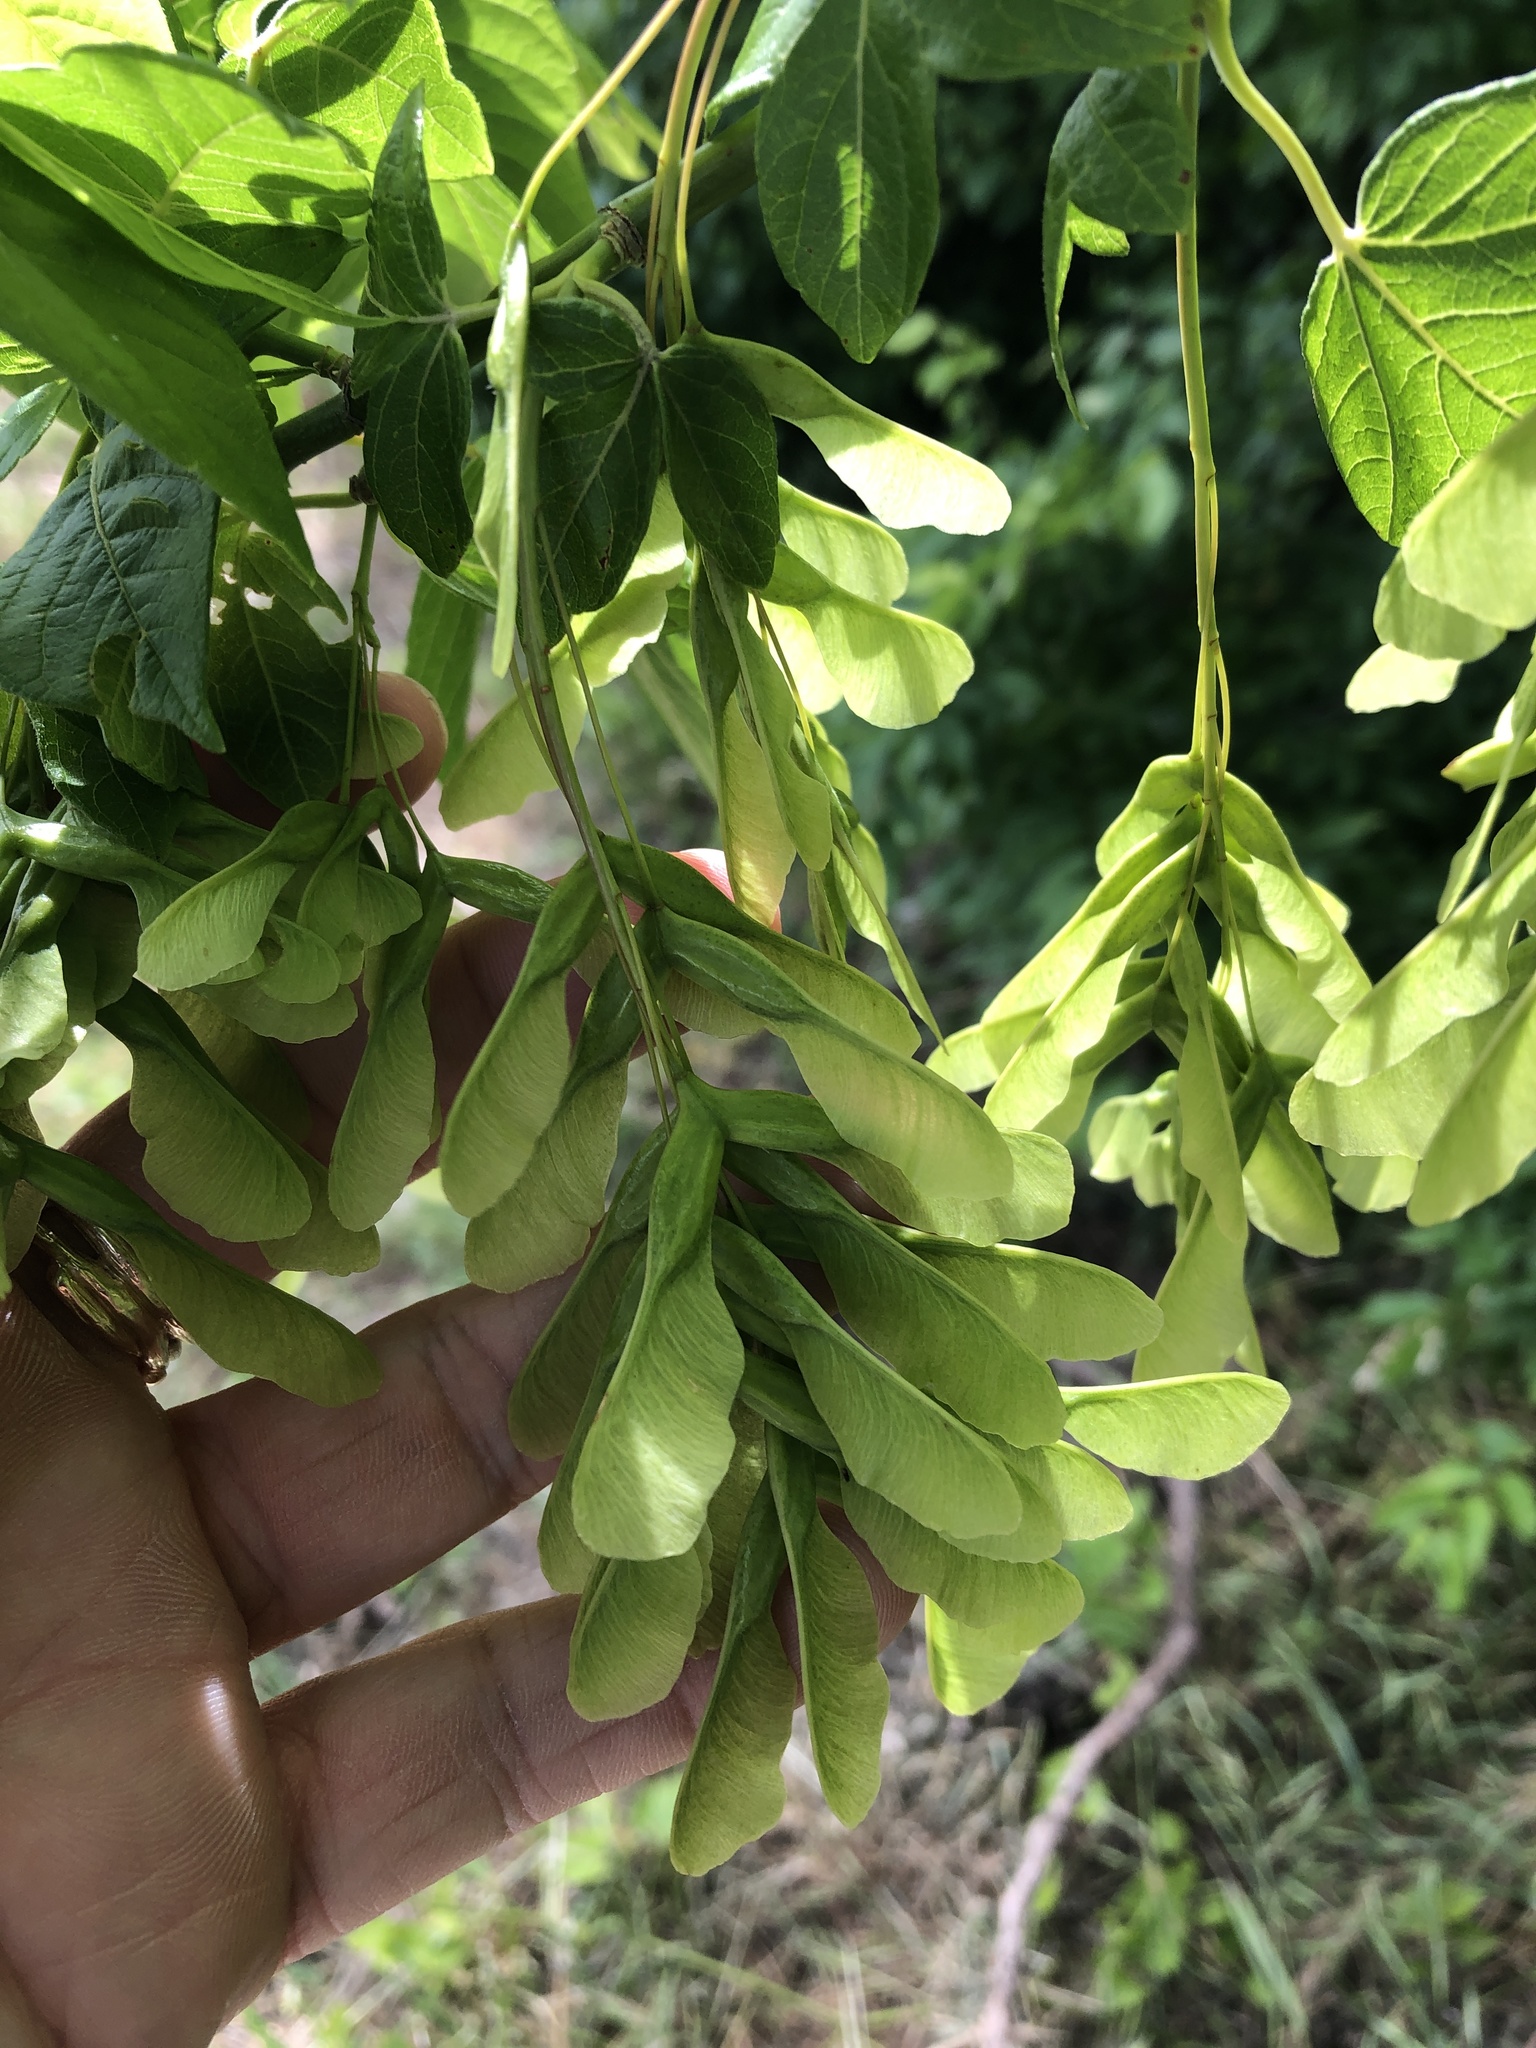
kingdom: Plantae
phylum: Tracheophyta
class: Magnoliopsida
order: Sapindales
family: Sapindaceae
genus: Acer
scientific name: Acer negundo
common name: Ashleaf maple
